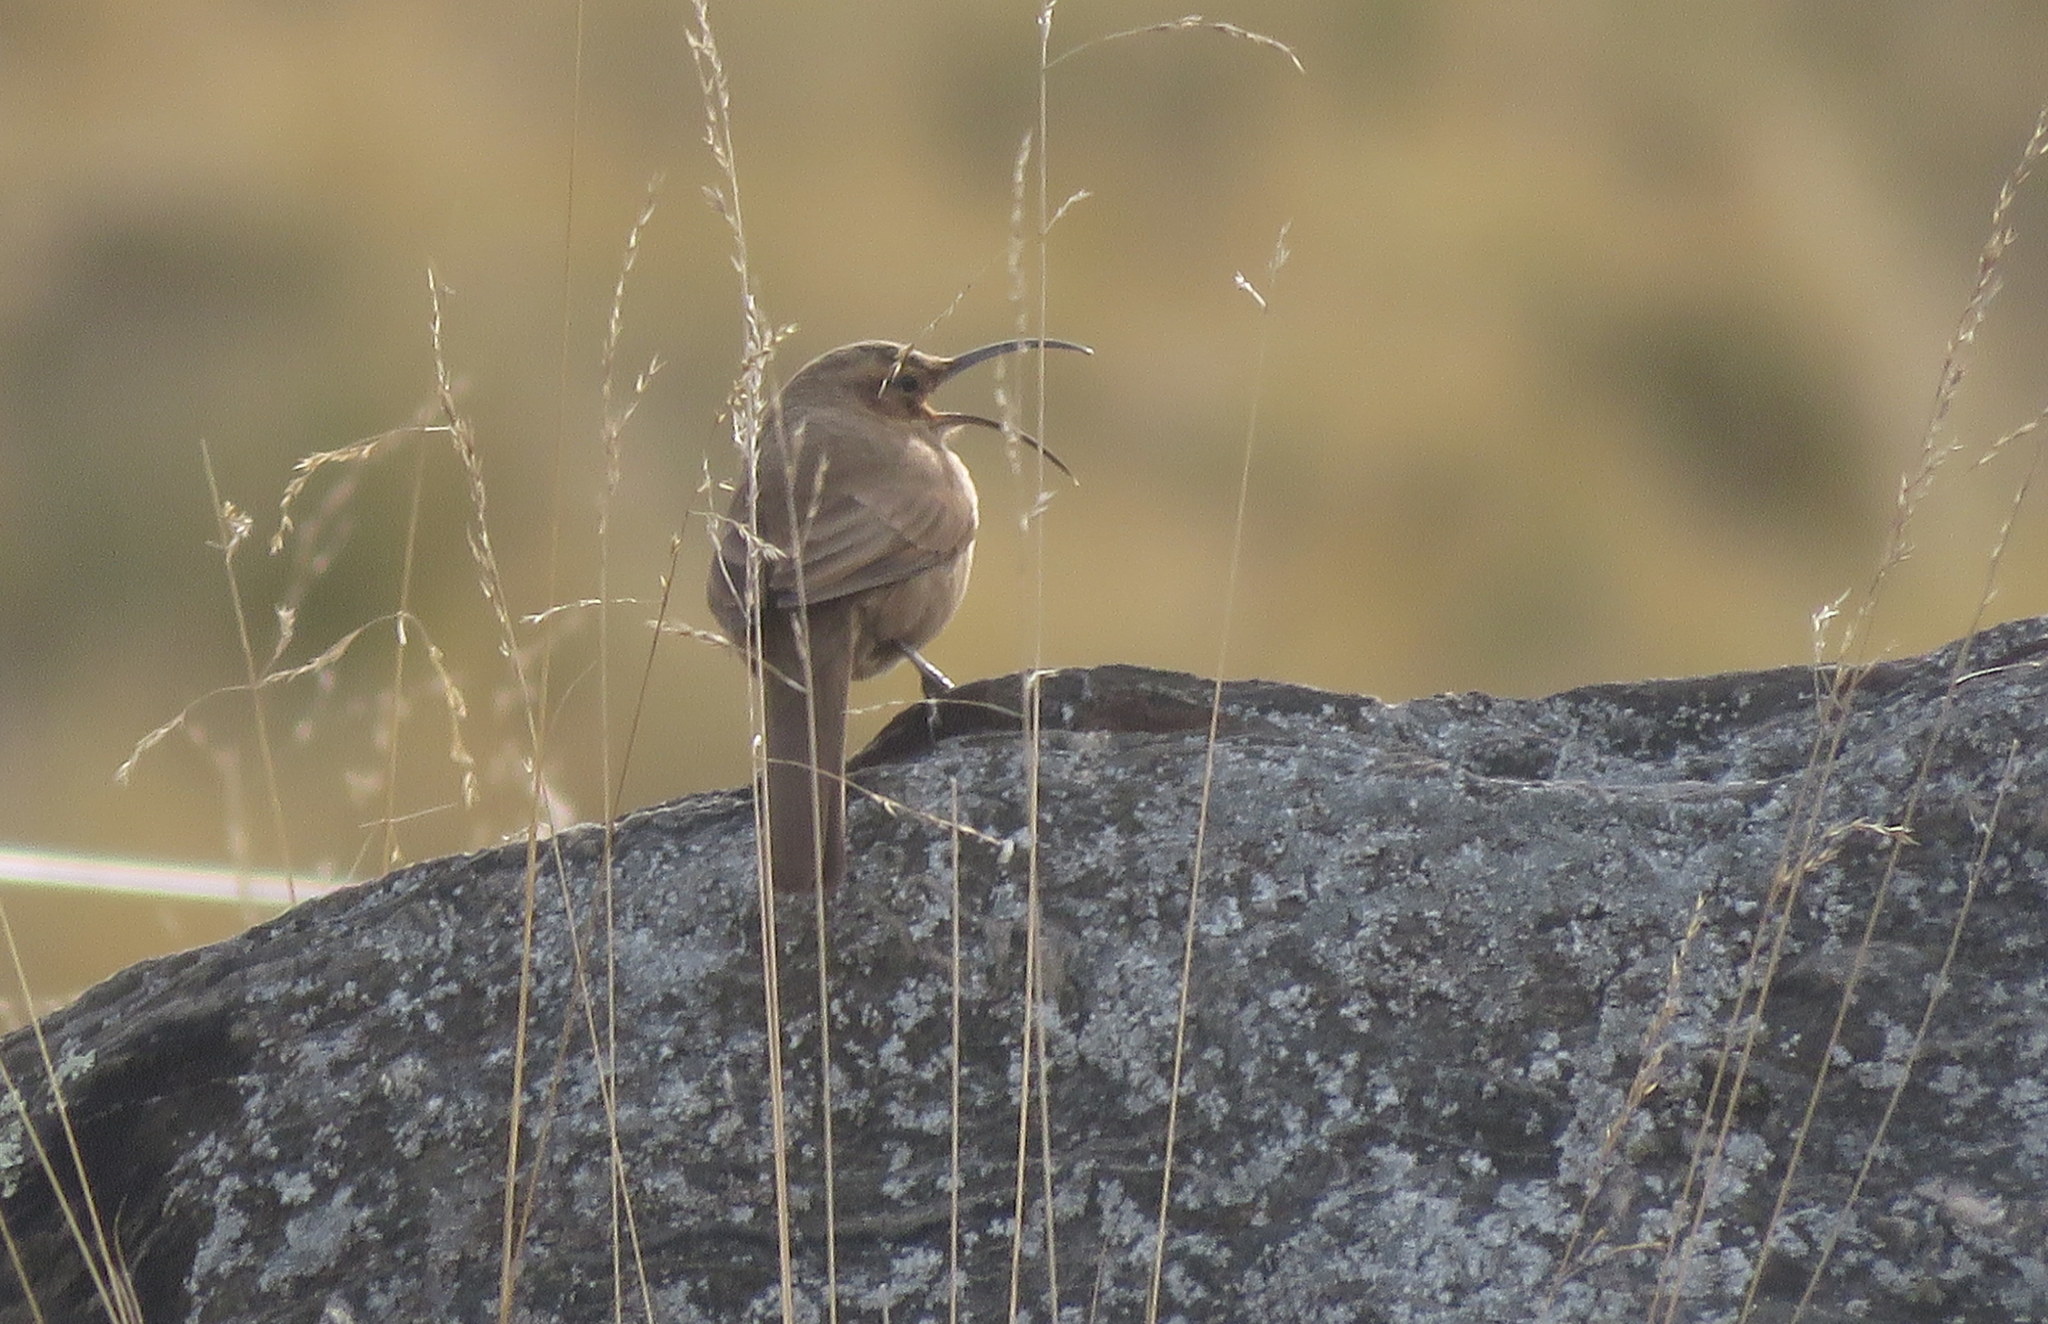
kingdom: Animalia
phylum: Chordata
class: Aves
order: Passeriformes
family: Furnariidae
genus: Upucerthia
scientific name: Upucerthia validirostris
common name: Buff-breasted earthcreeper
